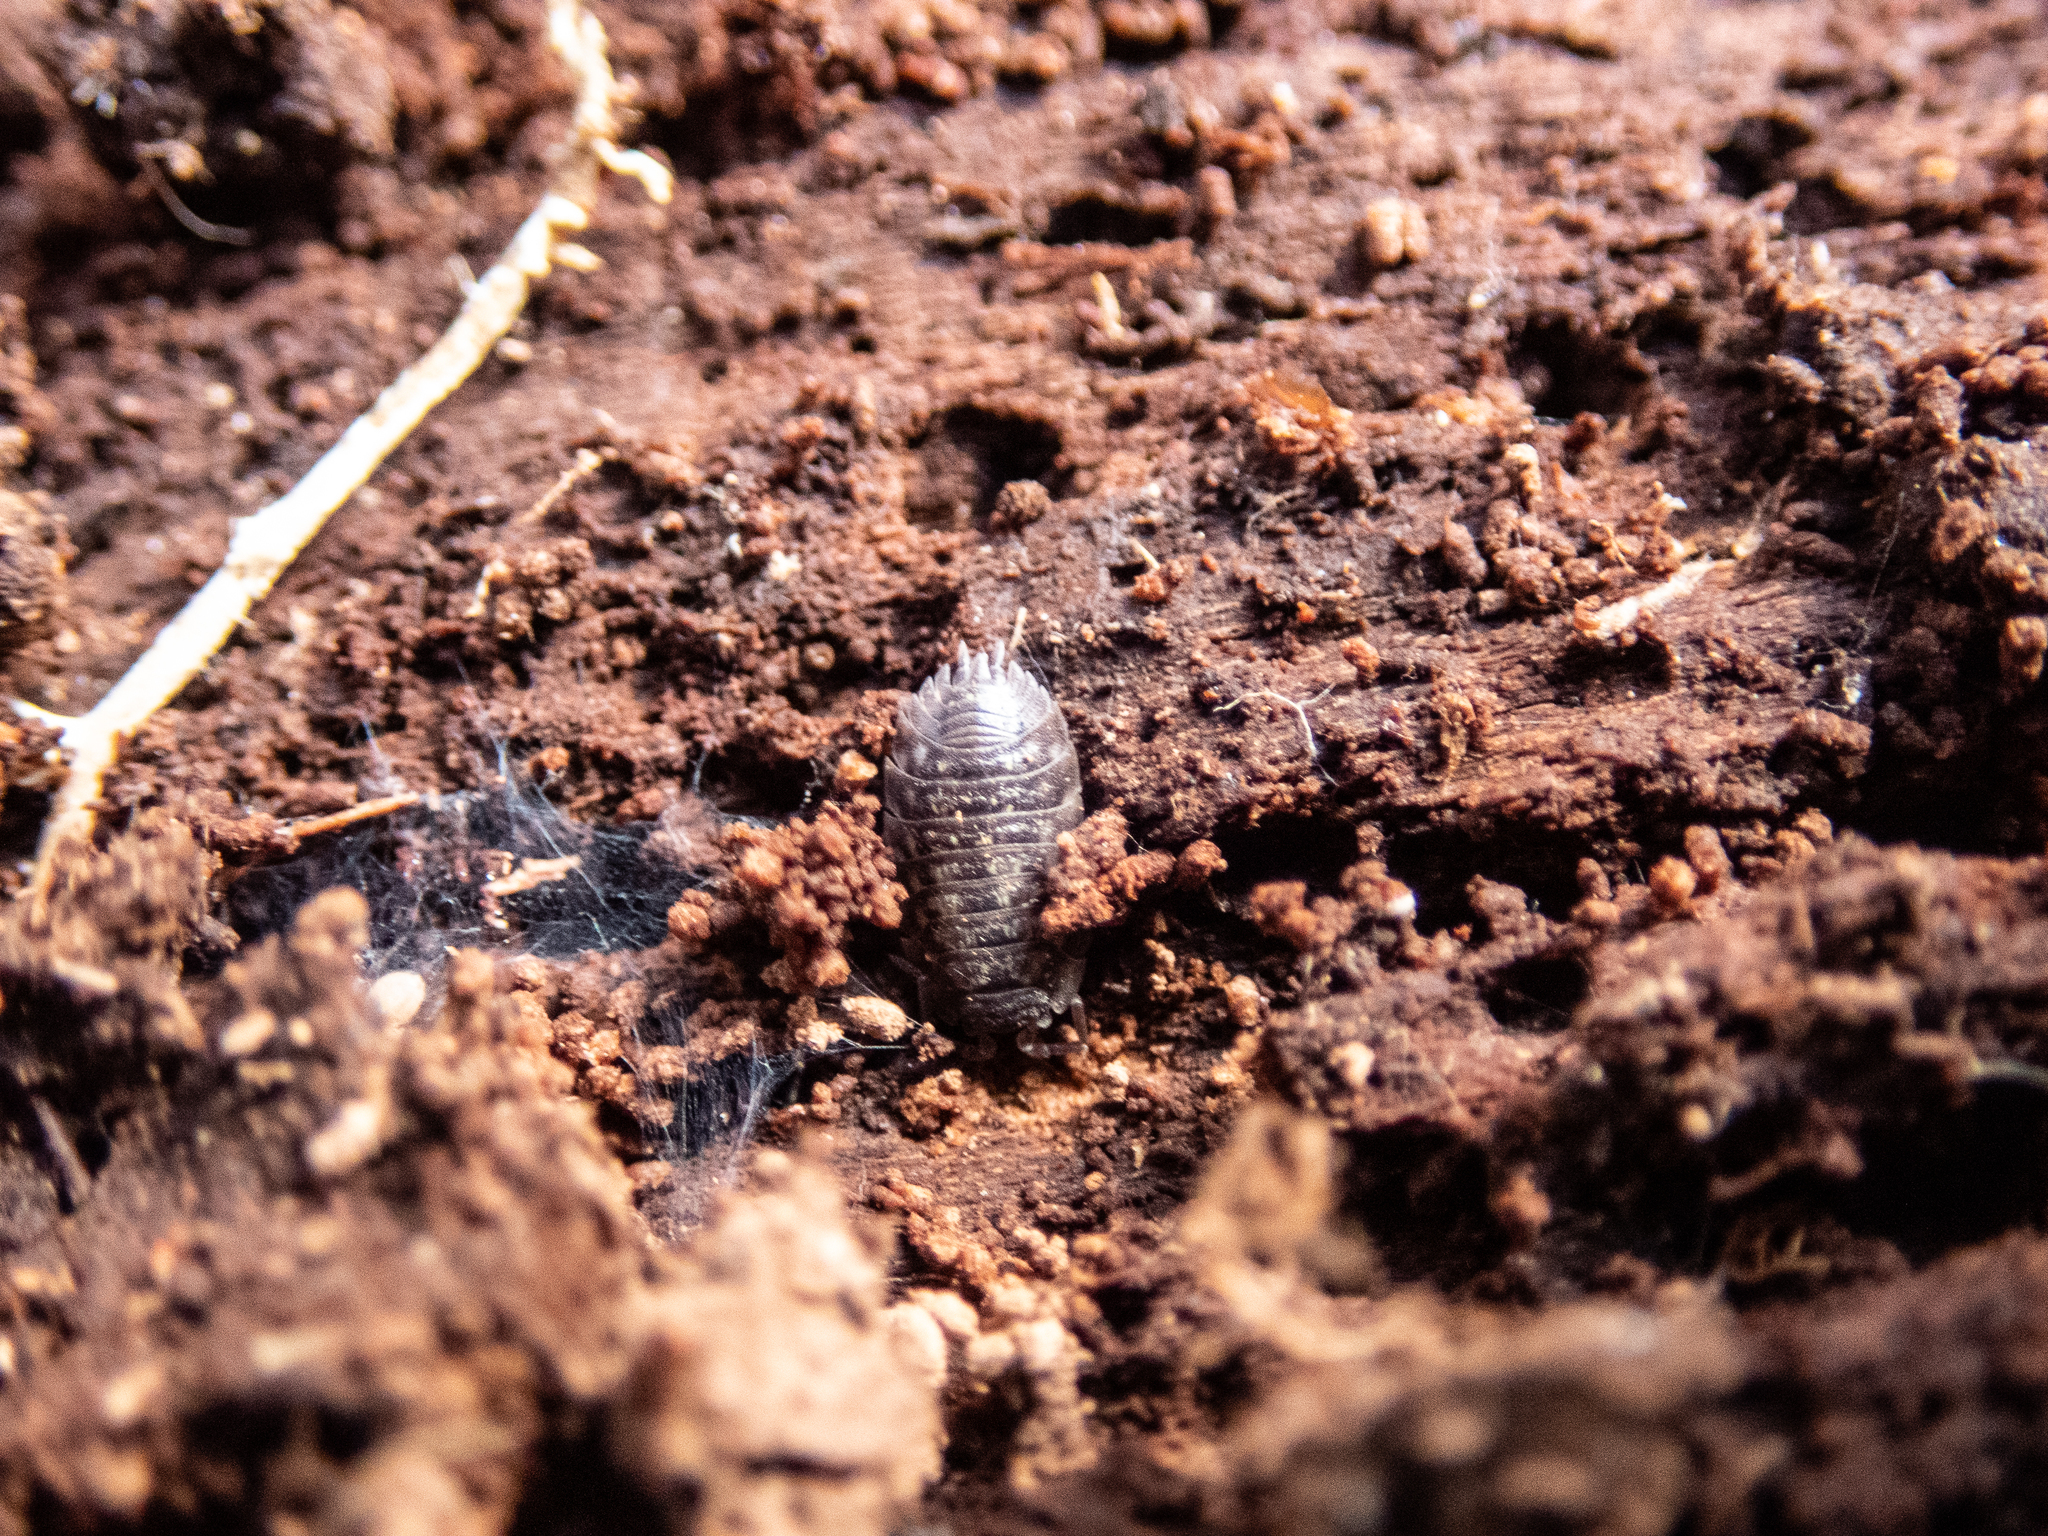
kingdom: Animalia
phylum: Arthropoda
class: Malacostraca
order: Isopoda
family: Oniscidae
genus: Oniscus
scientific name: Oniscus asellus
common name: Common shiny woodlouse
